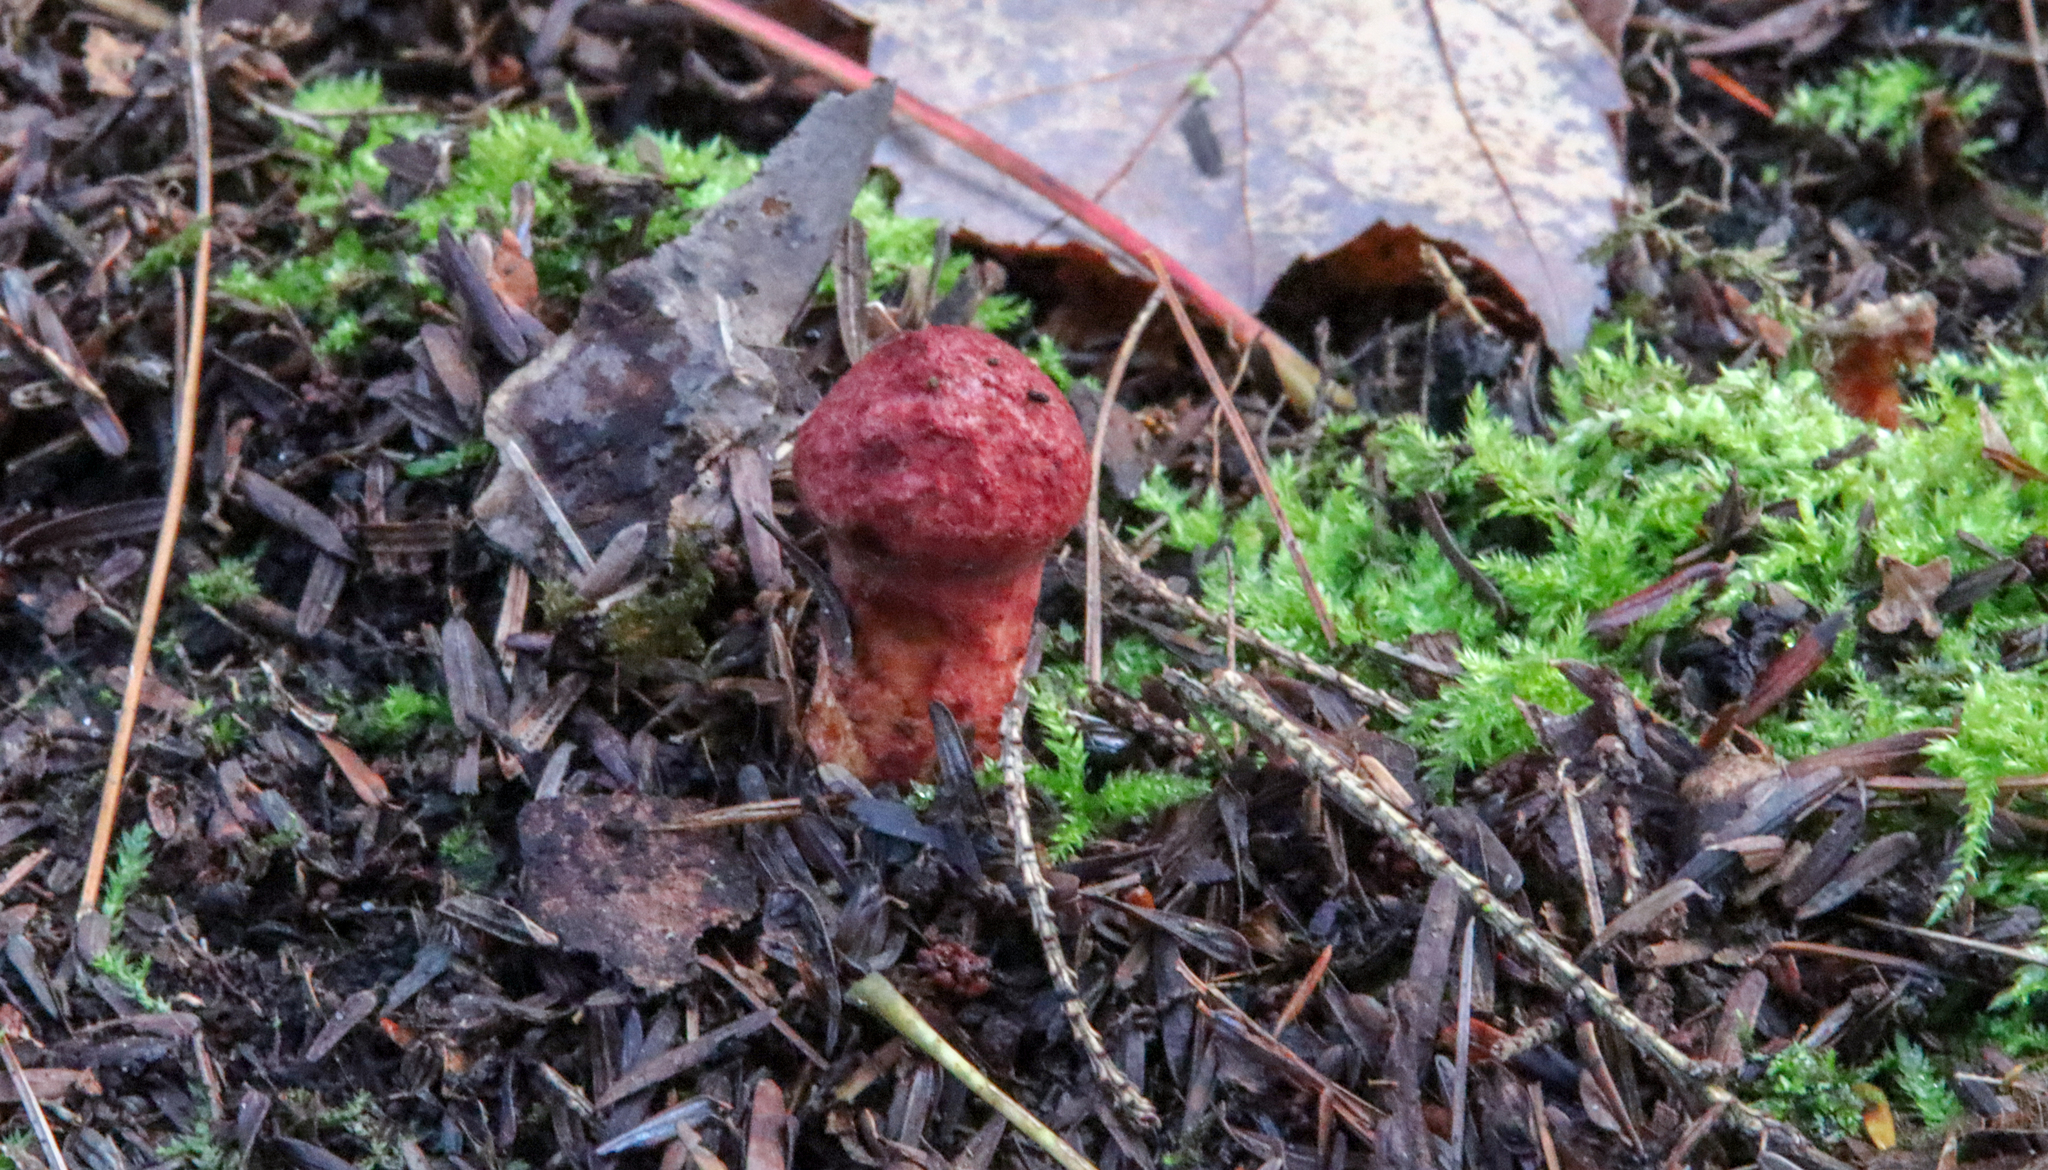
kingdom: Fungi
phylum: Basidiomycota
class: Agaricomycetes
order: Boletales
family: Suillaceae
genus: Suillus
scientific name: Suillus spraguei
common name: Painted suillus
